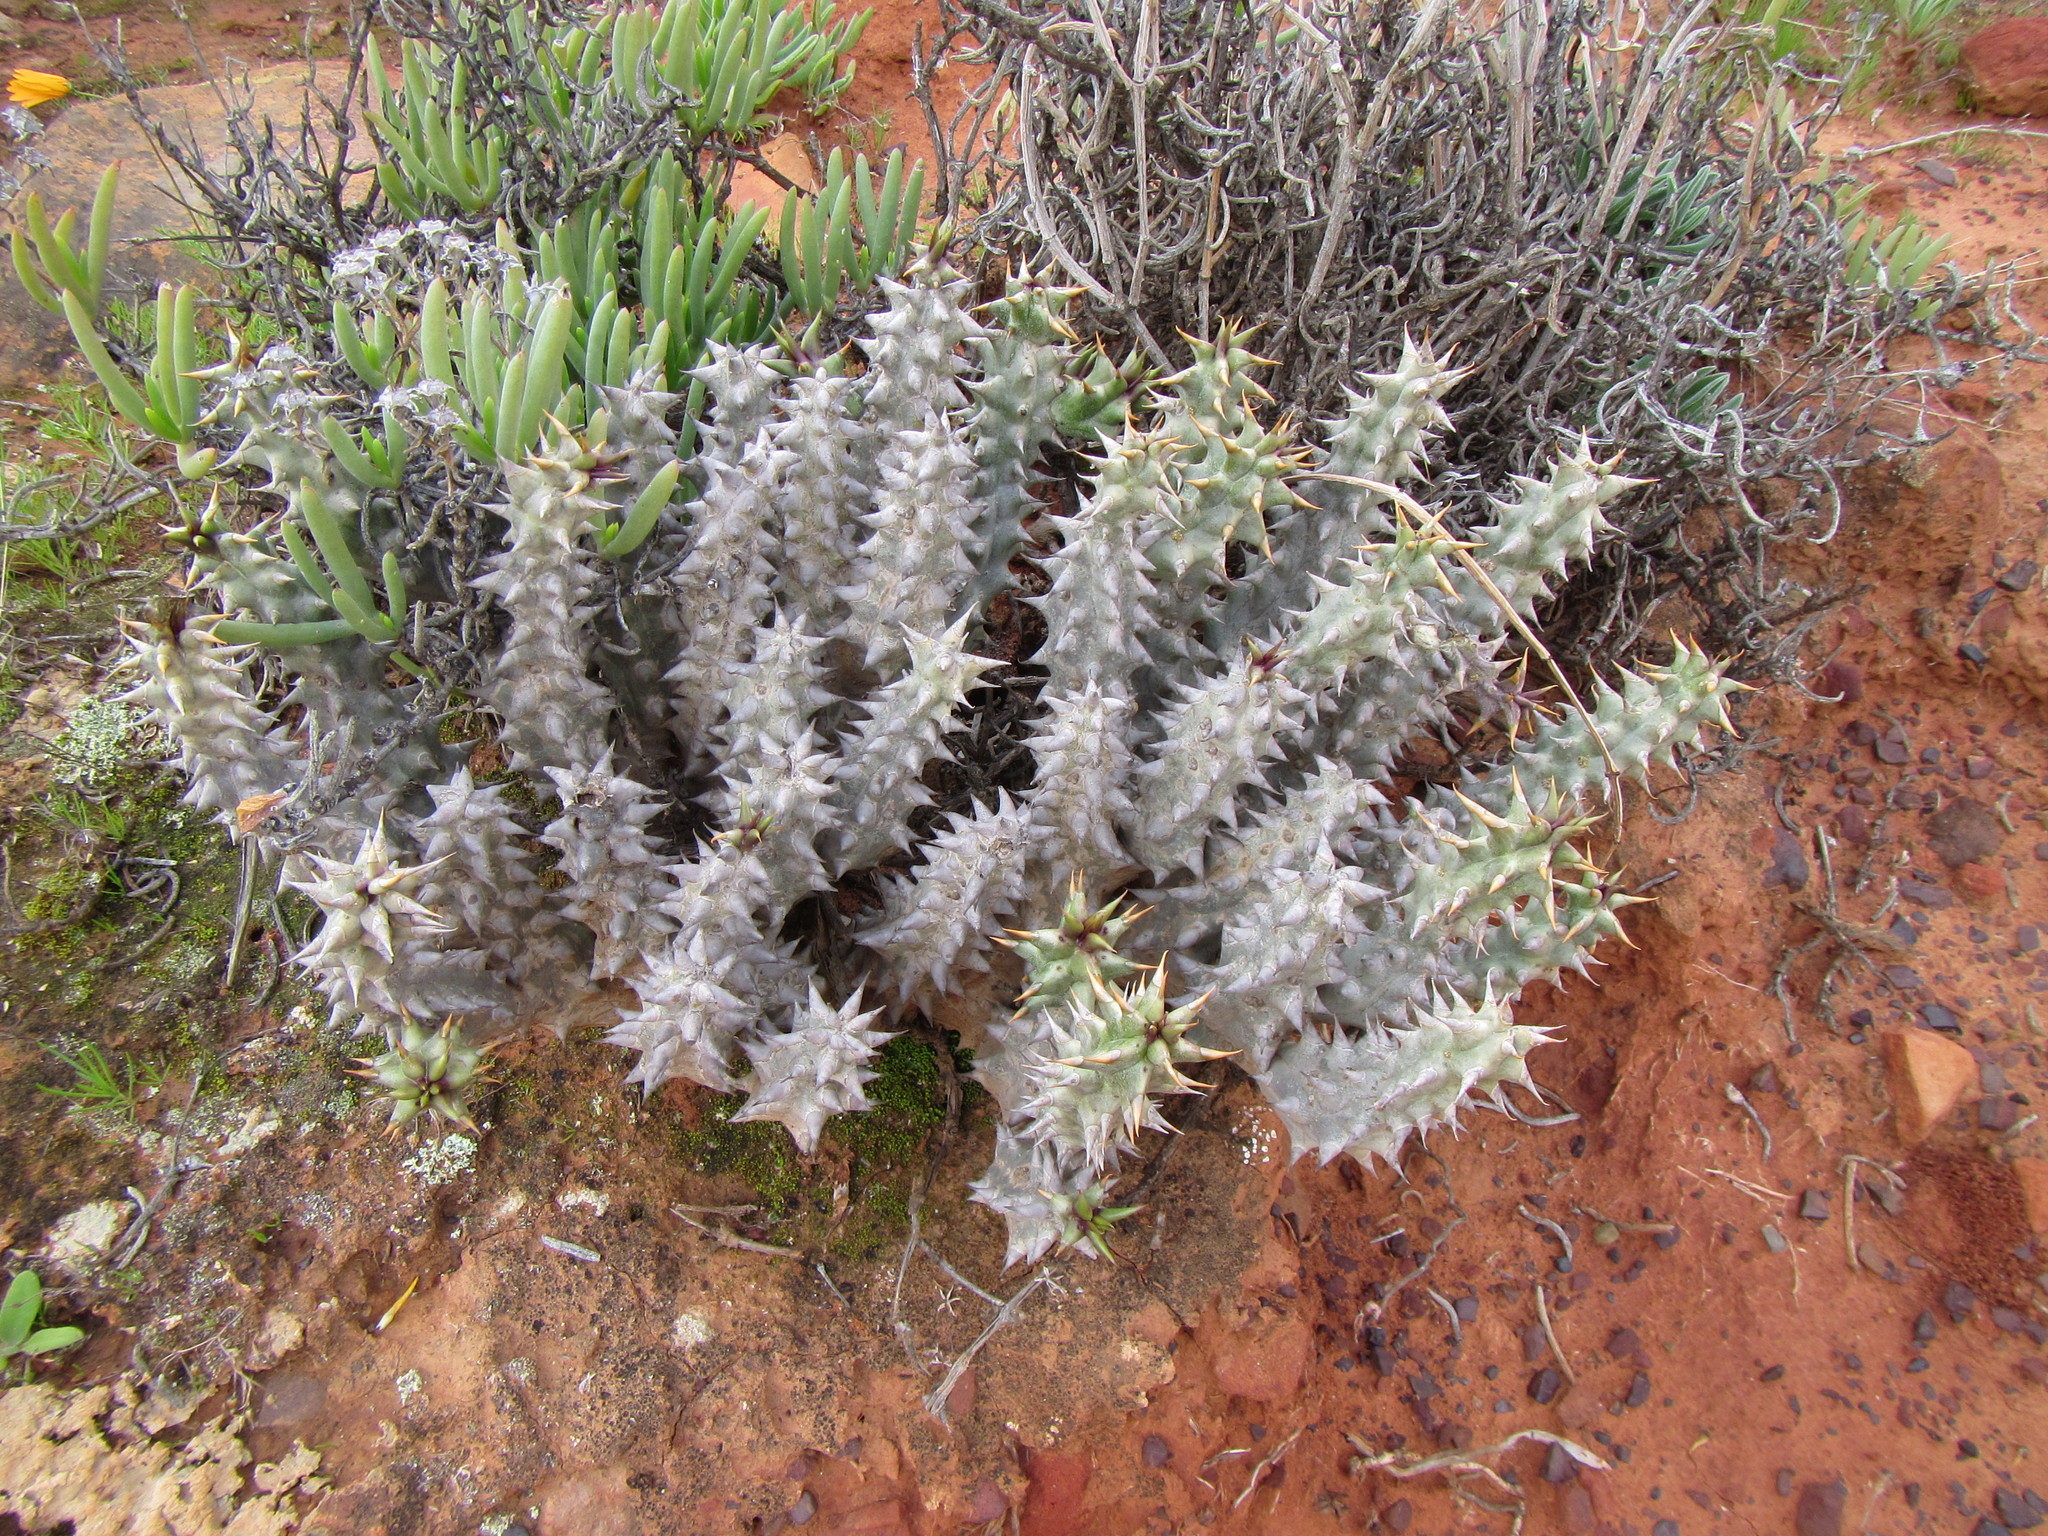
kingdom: Plantae
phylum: Tracheophyta
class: Magnoliopsida
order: Gentianales
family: Apocynaceae
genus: Ceropegia
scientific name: Ceropegia mammillaris
